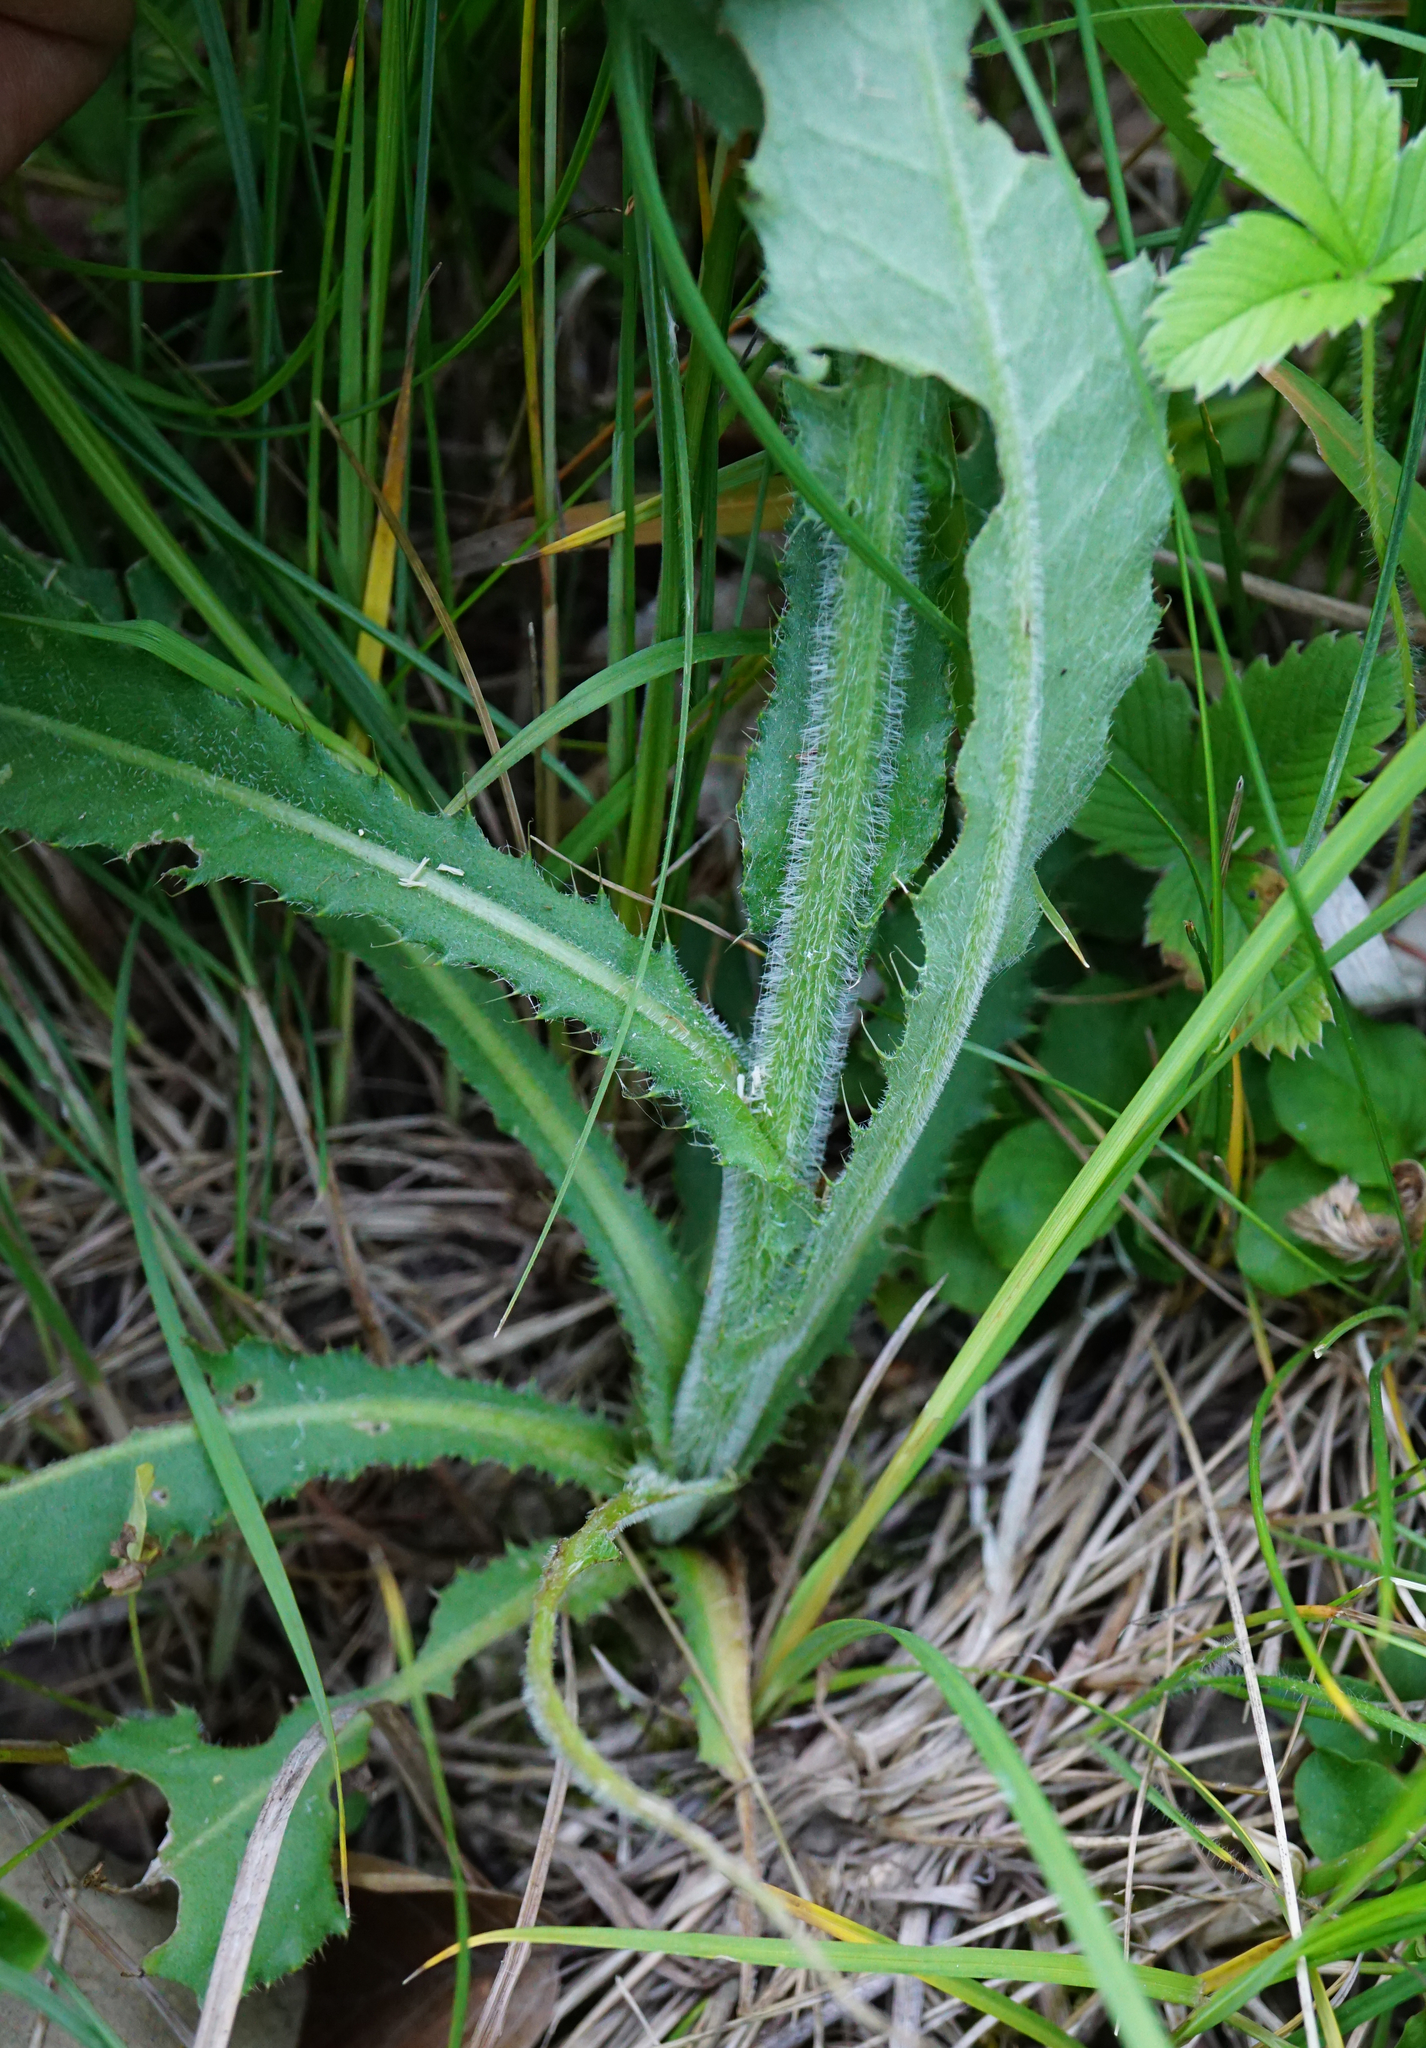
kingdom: Plantae
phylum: Tracheophyta
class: Magnoliopsida
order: Asterales
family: Asteraceae
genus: Cirsium
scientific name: Cirsium pannonicum
